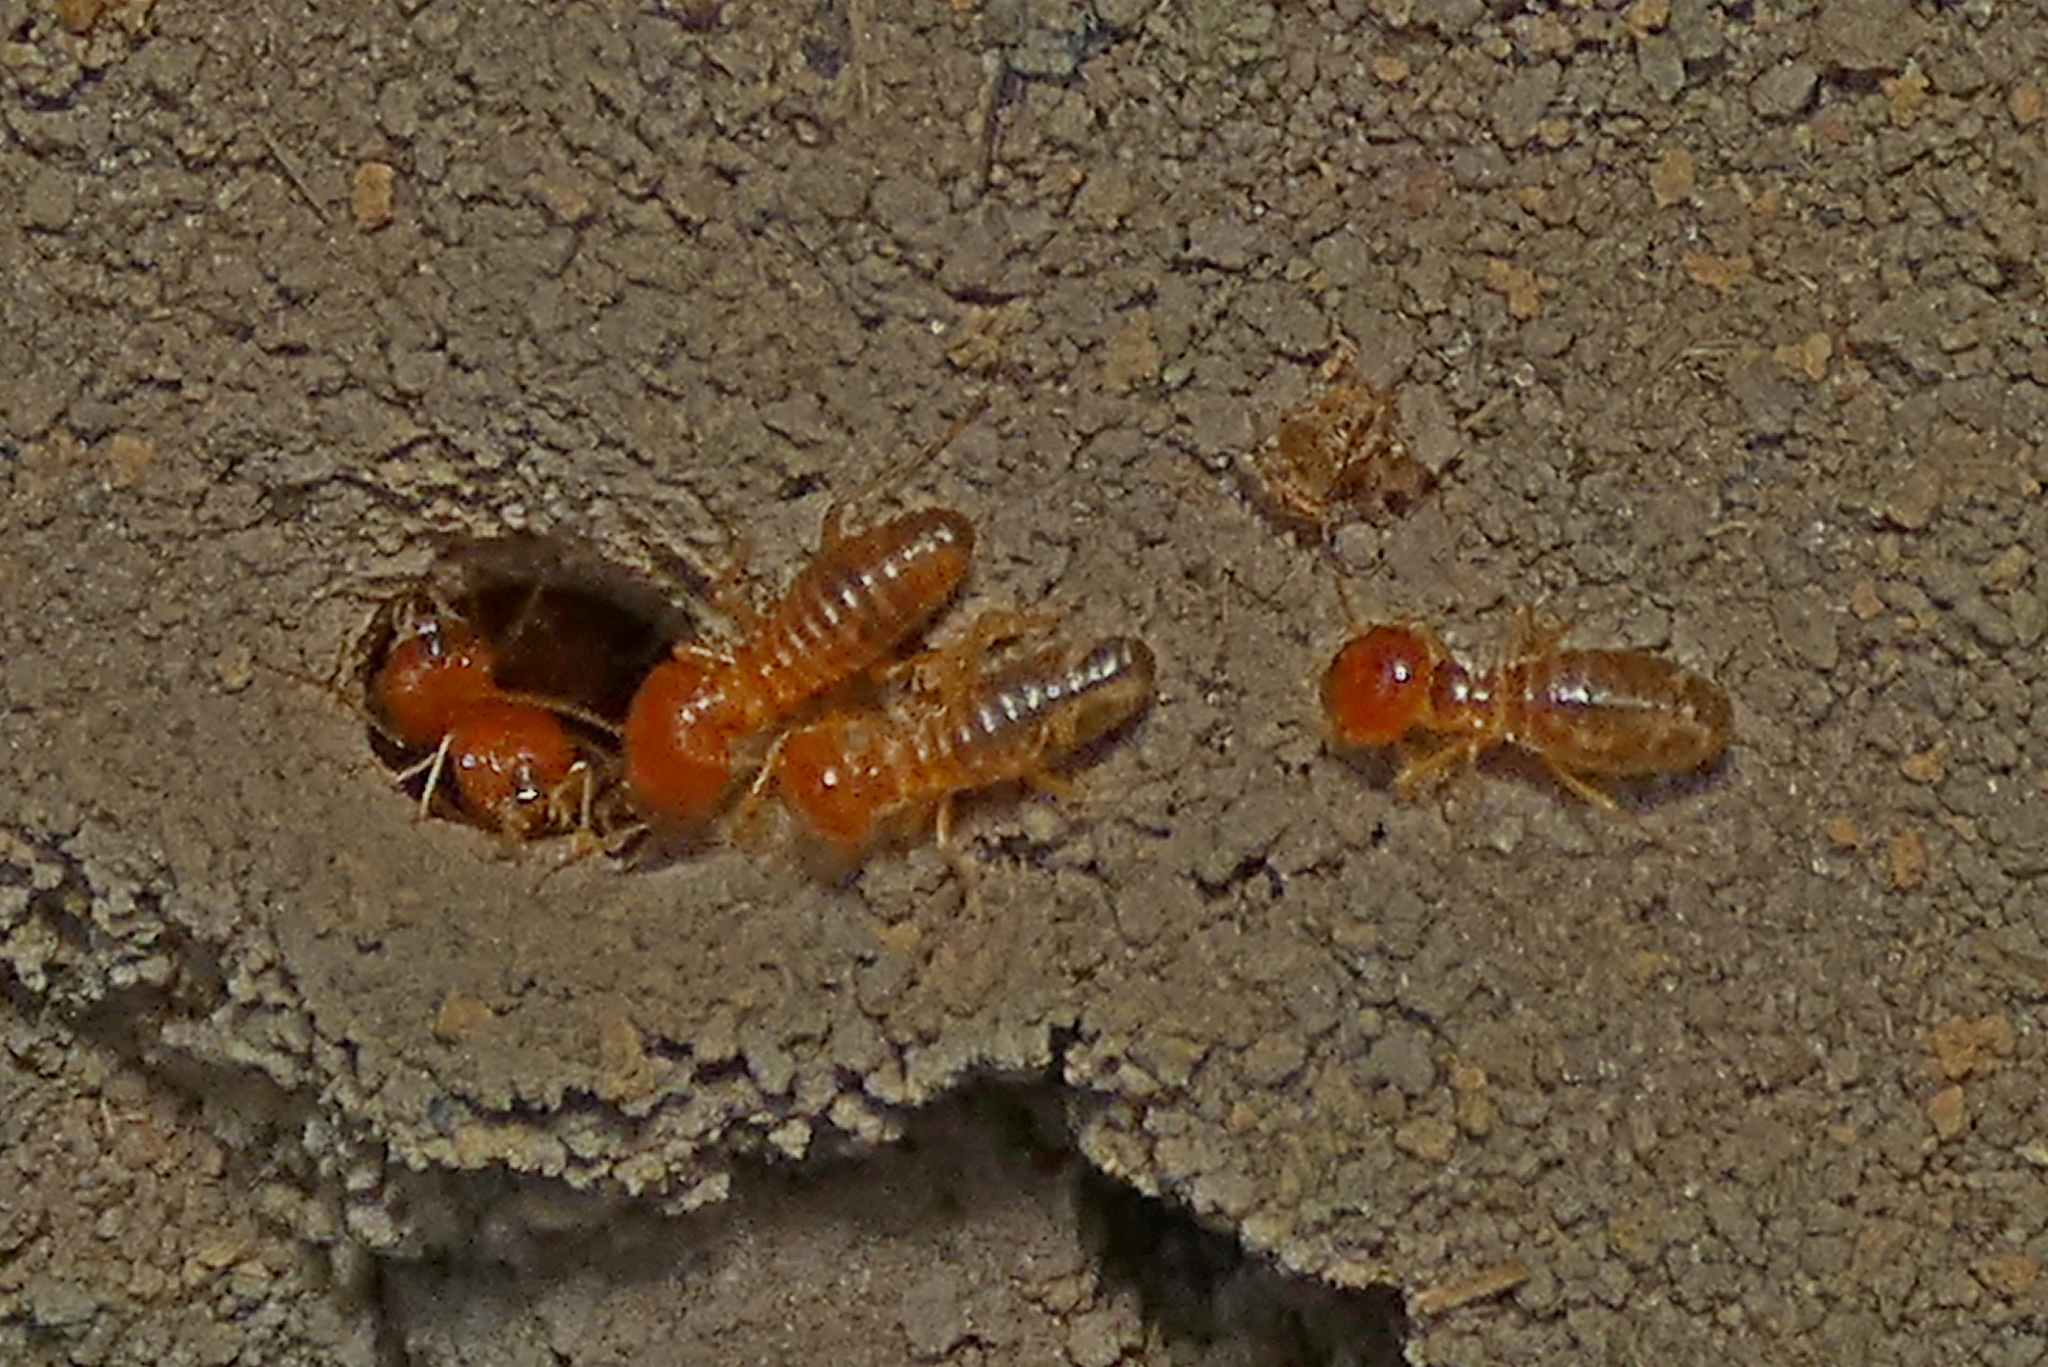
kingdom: Animalia
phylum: Arthropoda
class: Insecta
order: Blattodea
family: Termitidae
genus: Syntermes
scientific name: Syntermes nanus
